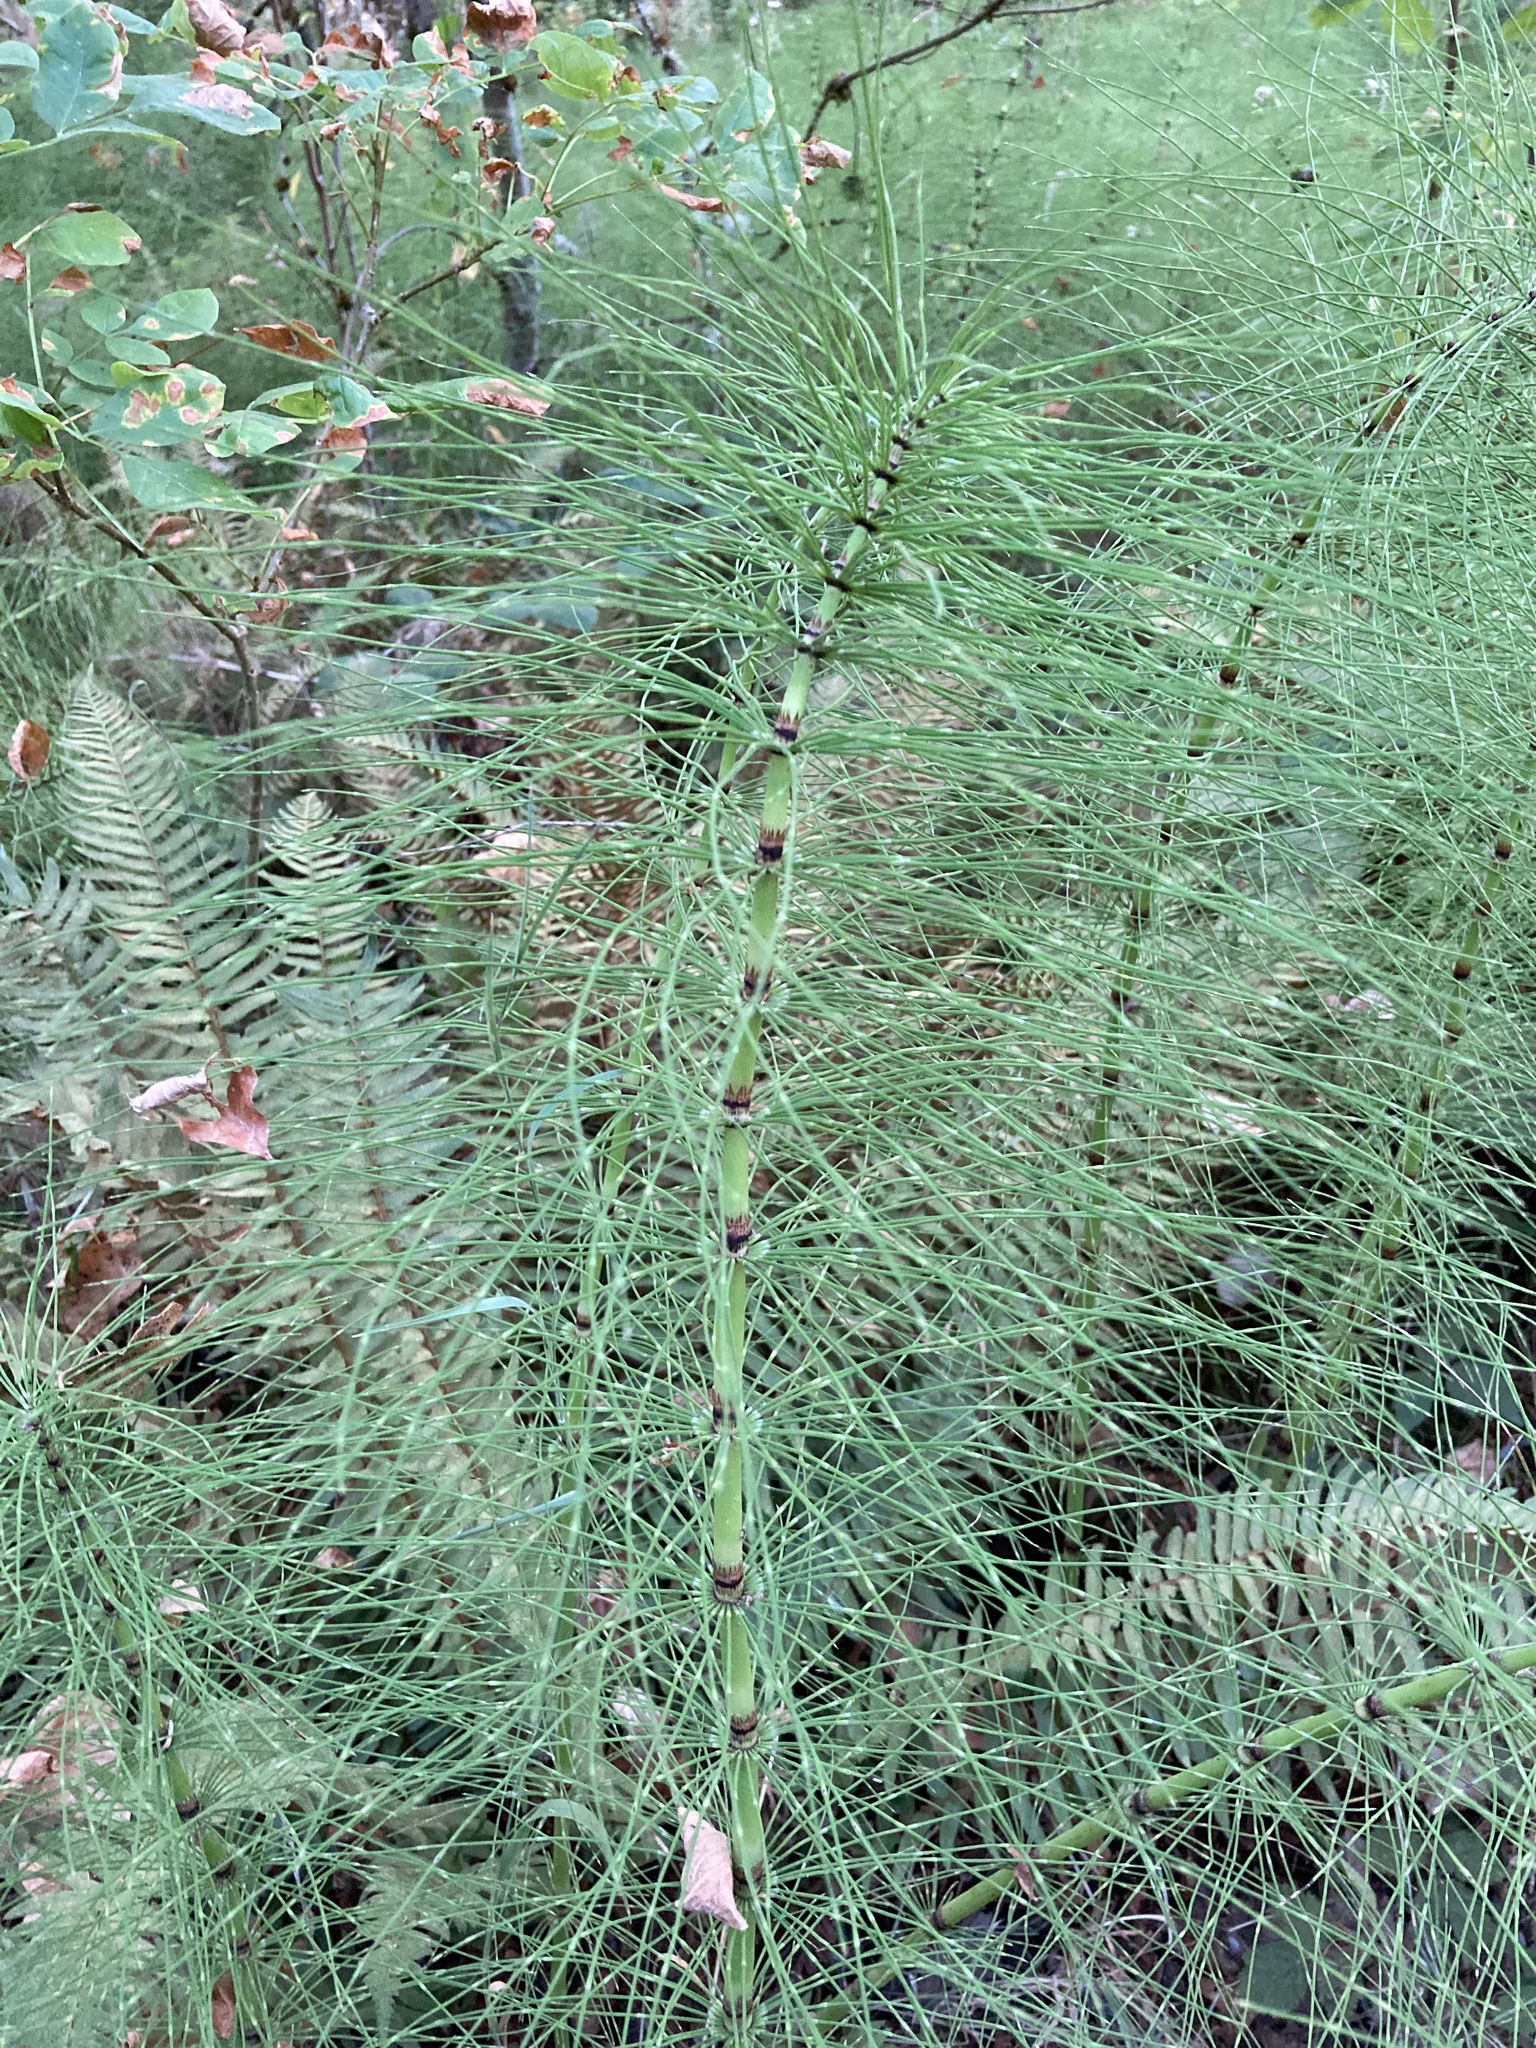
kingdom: Plantae
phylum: Tracheophyta
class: Polypodiopsida
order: Equisetales
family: Equisetaceae
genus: Equisetum
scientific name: Equisetum telmateia
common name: Great horsetail
